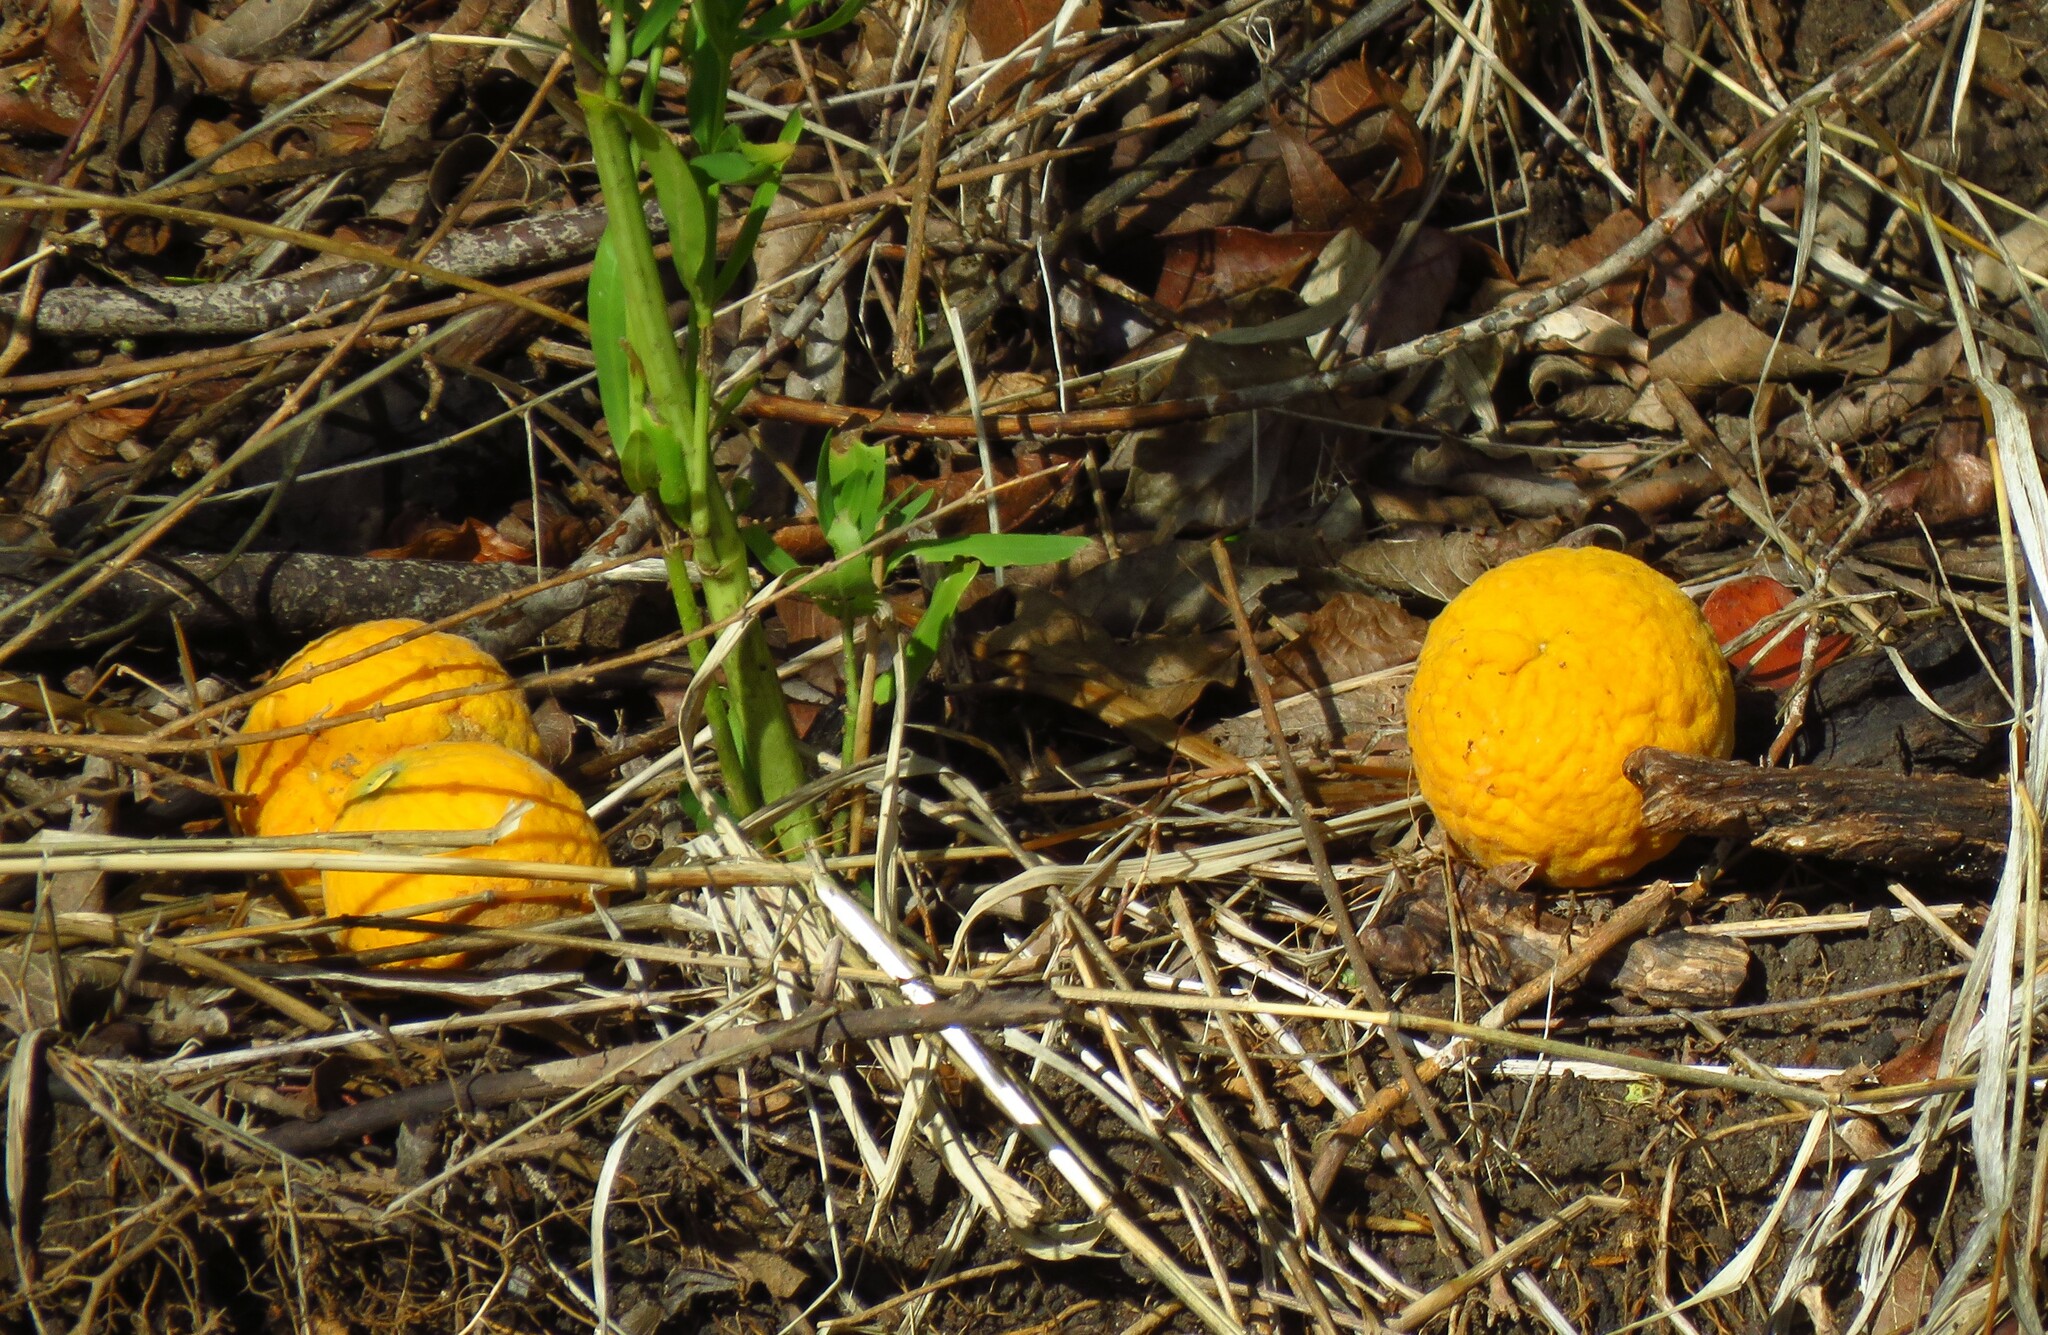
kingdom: Plantae
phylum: Tracheophyta
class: Magnoliopsida
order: Sapindales
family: Rutaceae
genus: Citrus
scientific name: Citrus trifoliata
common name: Japanese bitter-orange
